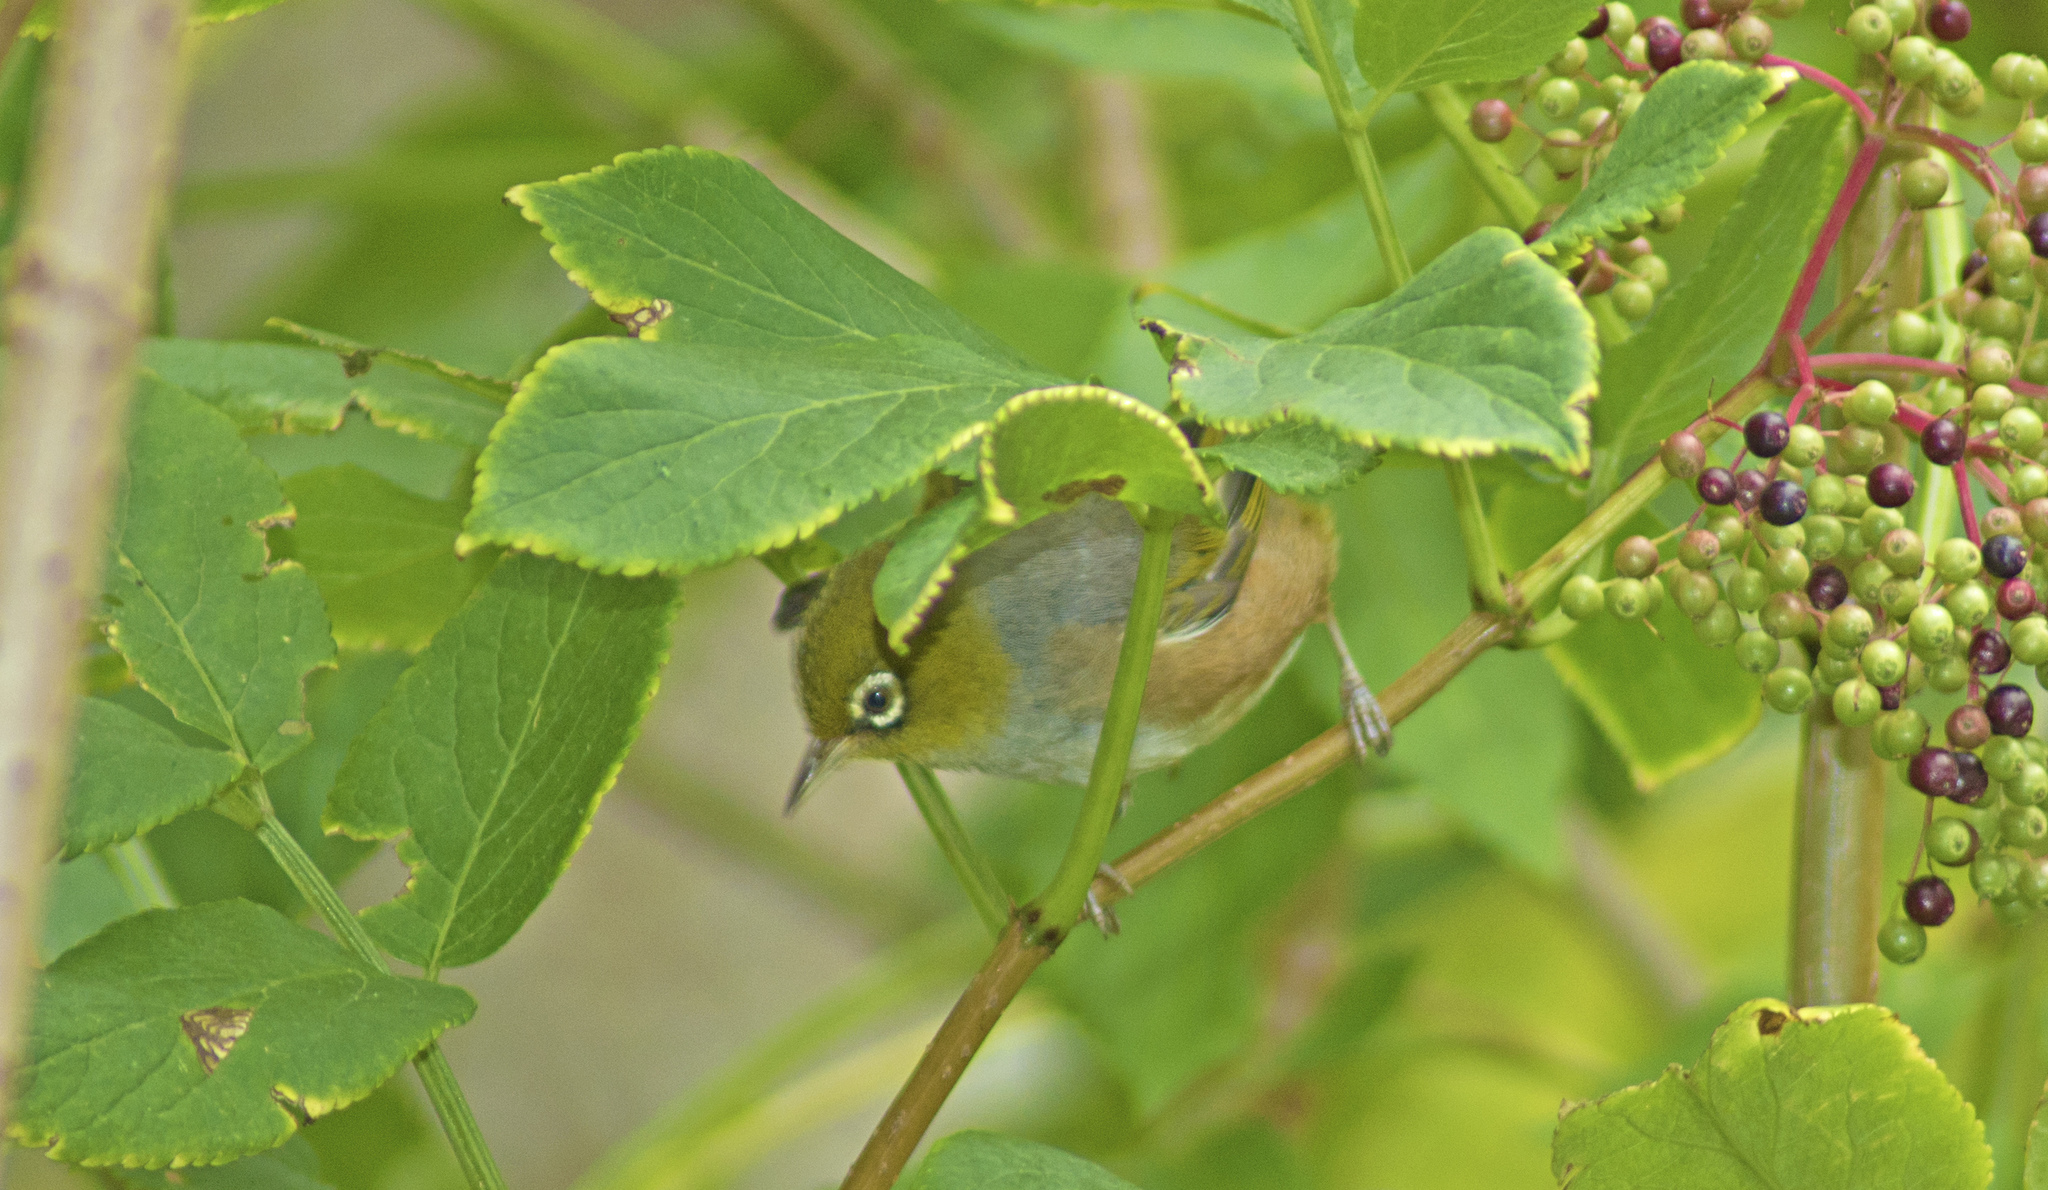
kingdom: Animalia
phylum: Chordata
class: Aves
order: Passeriformes
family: Zosteropidae
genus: Zosterops
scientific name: Zosterops lateralis
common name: Silvereye
